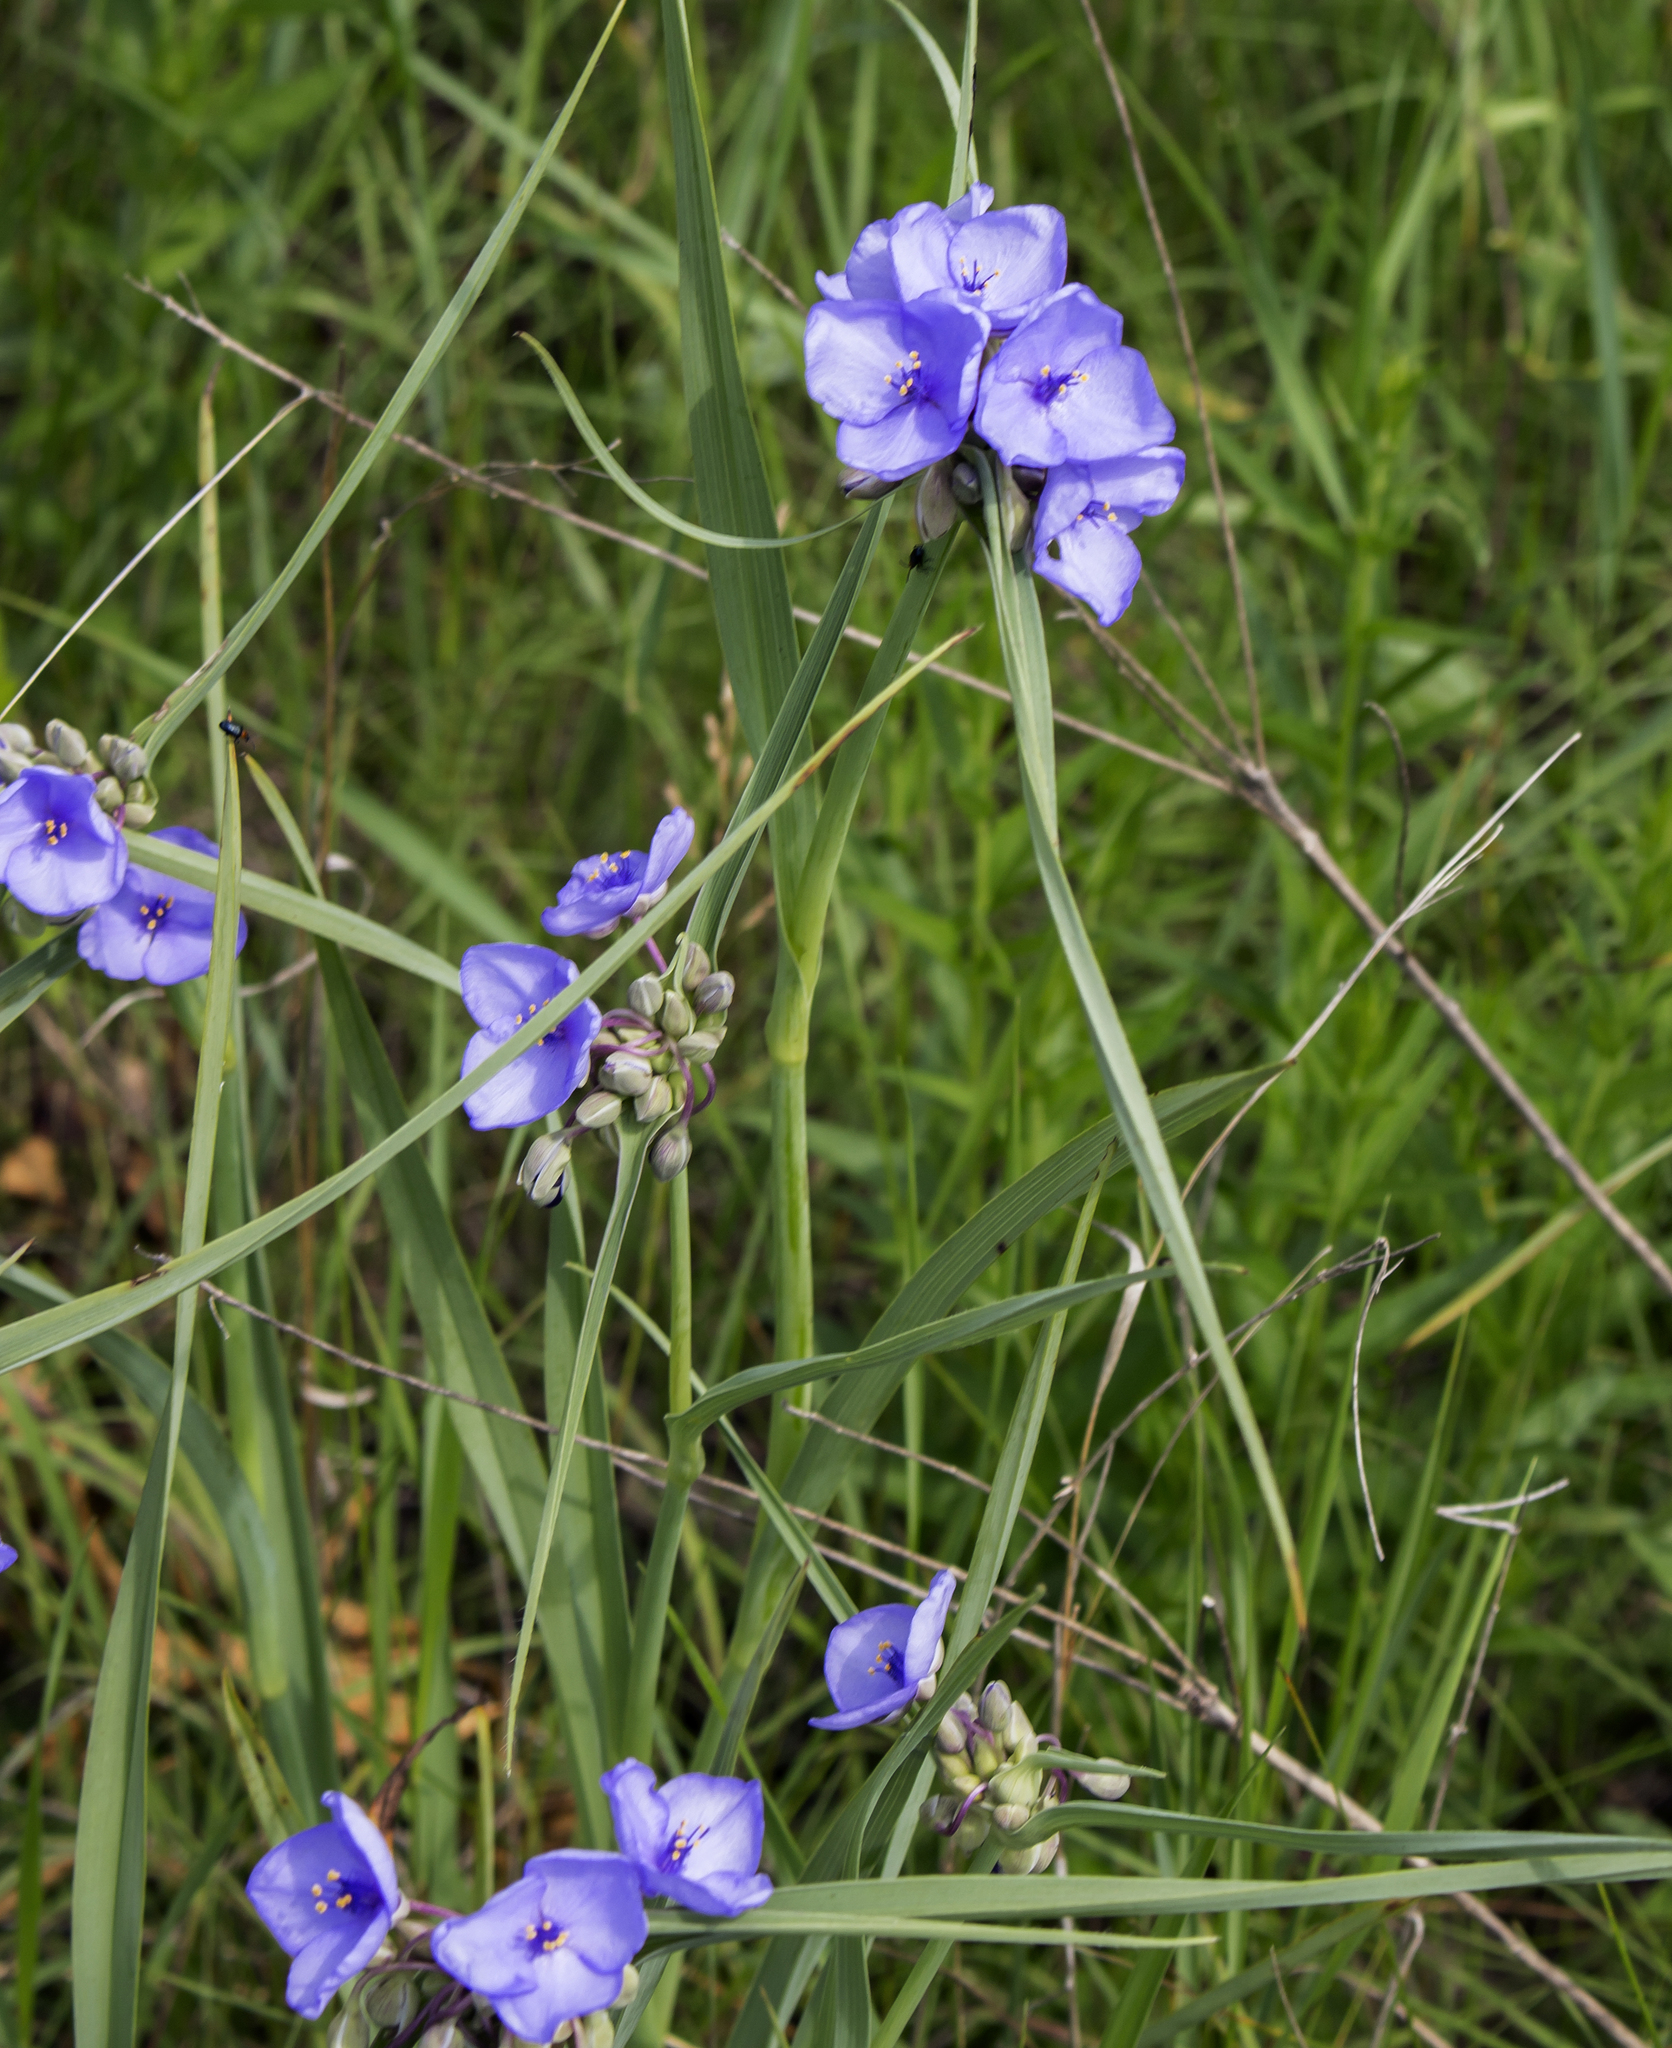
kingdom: Plantae
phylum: Tracheophyta
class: Liliopsida
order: Commelinales
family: Commelinaceae
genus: Tradescantia
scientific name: Tradescantia ohiensis
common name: Ohio spiderwort
